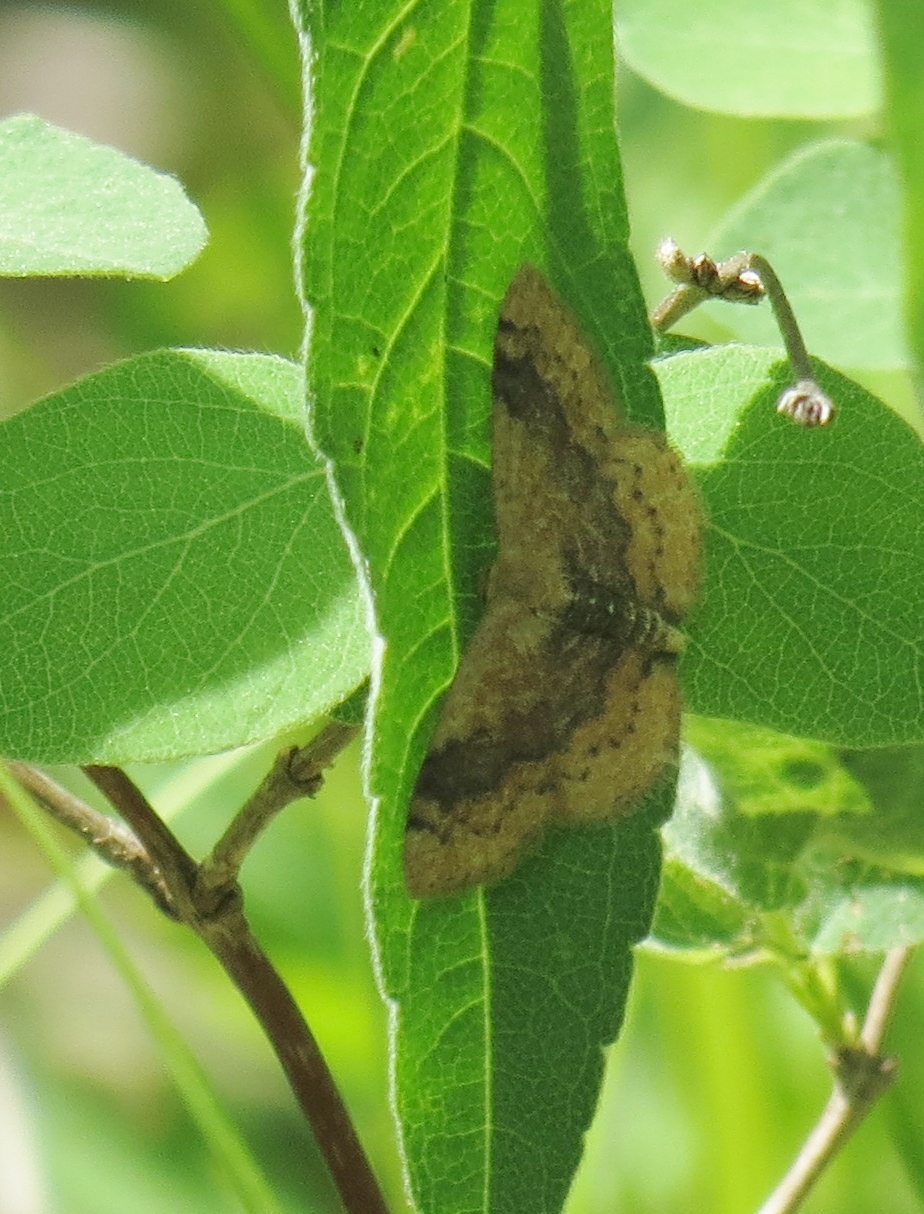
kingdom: Animalia
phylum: Arthropoda
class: Insecta
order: Lepidoptera
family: Geometridae
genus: Leptostales
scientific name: Leptostales ferruminaria
